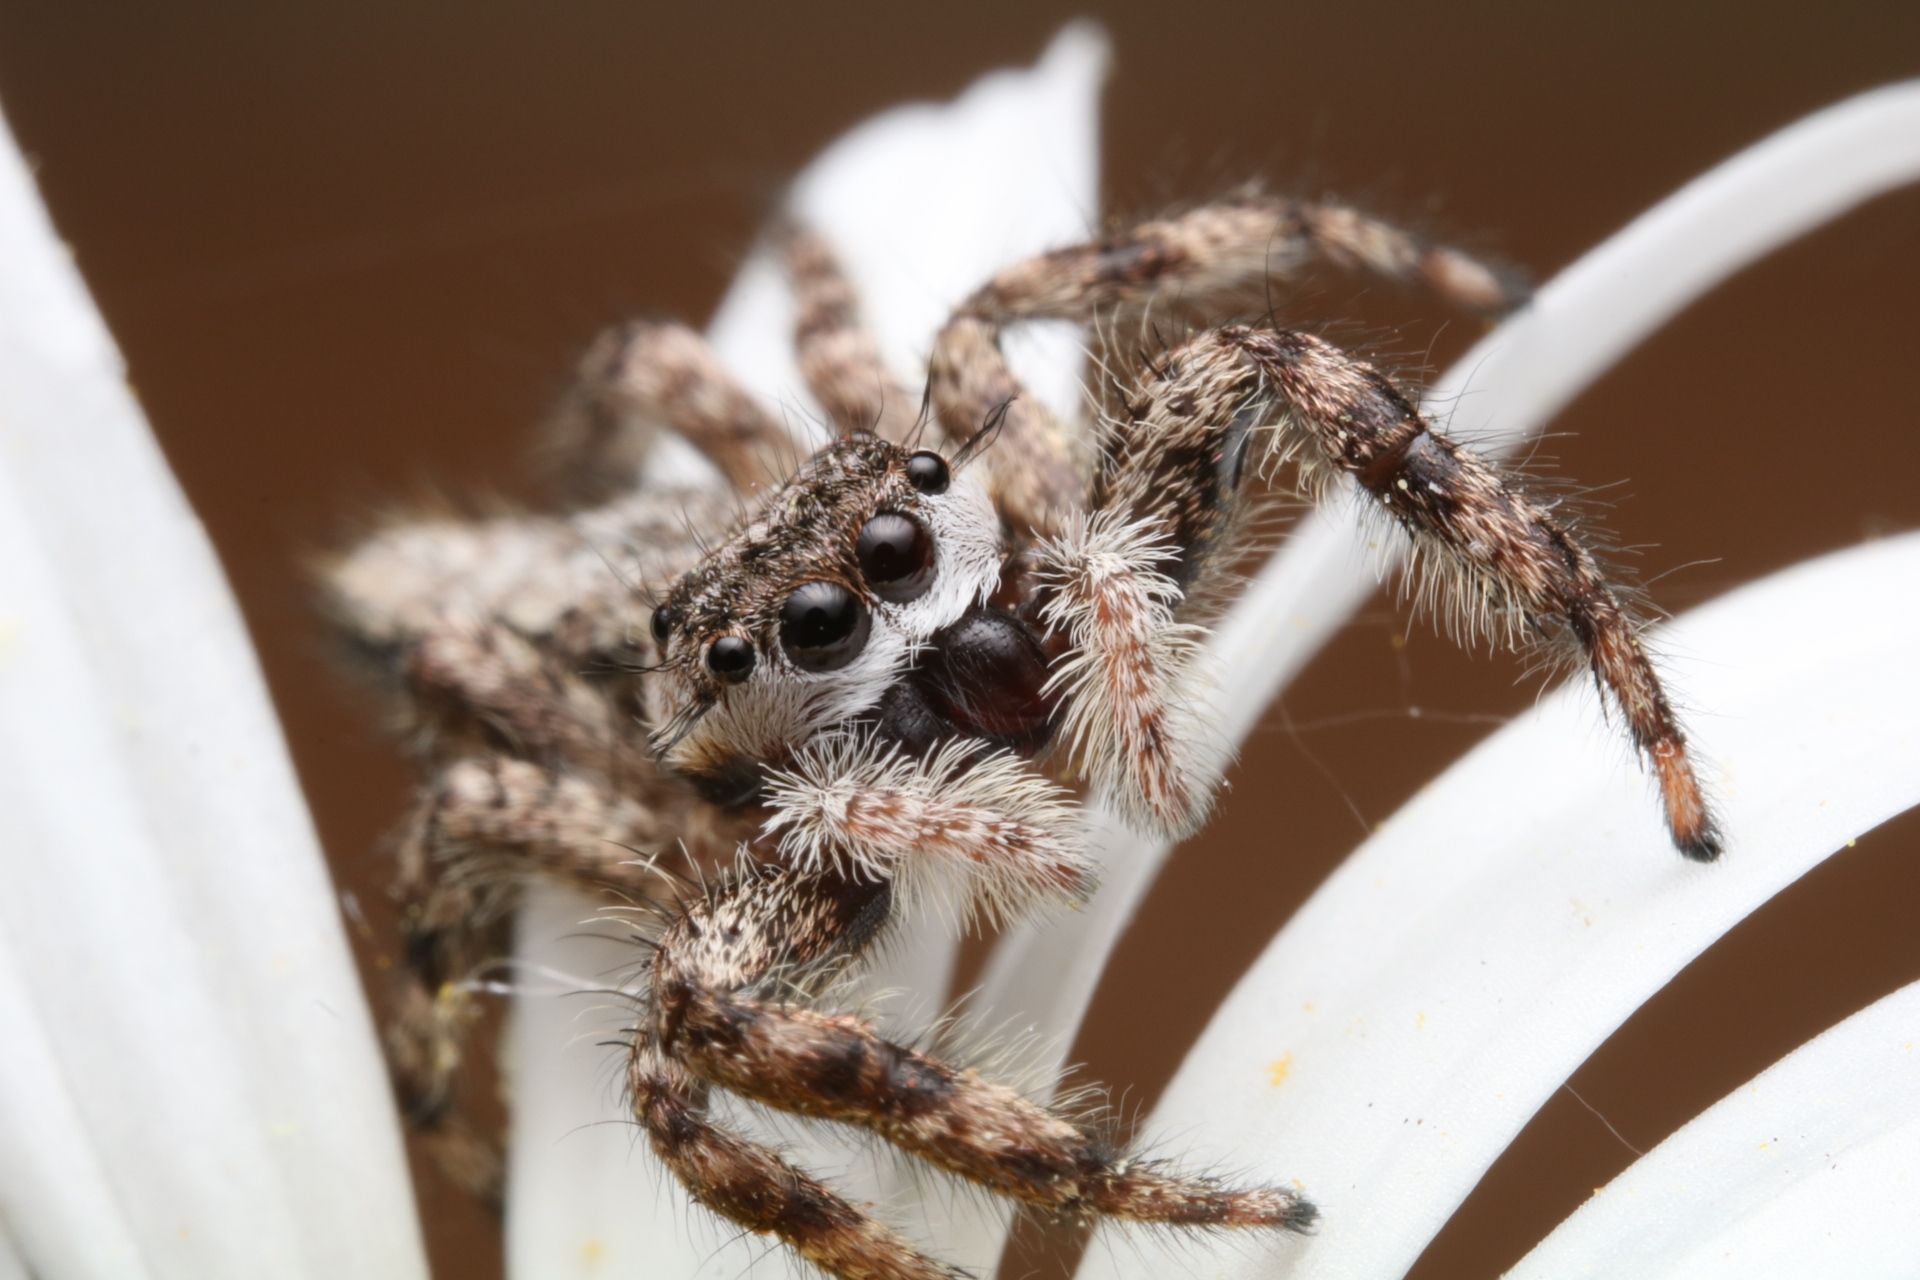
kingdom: Animalia
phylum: Arthropoda
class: Arachnida
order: Araneae
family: Salticidae
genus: Platycryptus
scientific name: Platycryptus undatus
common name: Tan jumping spider
